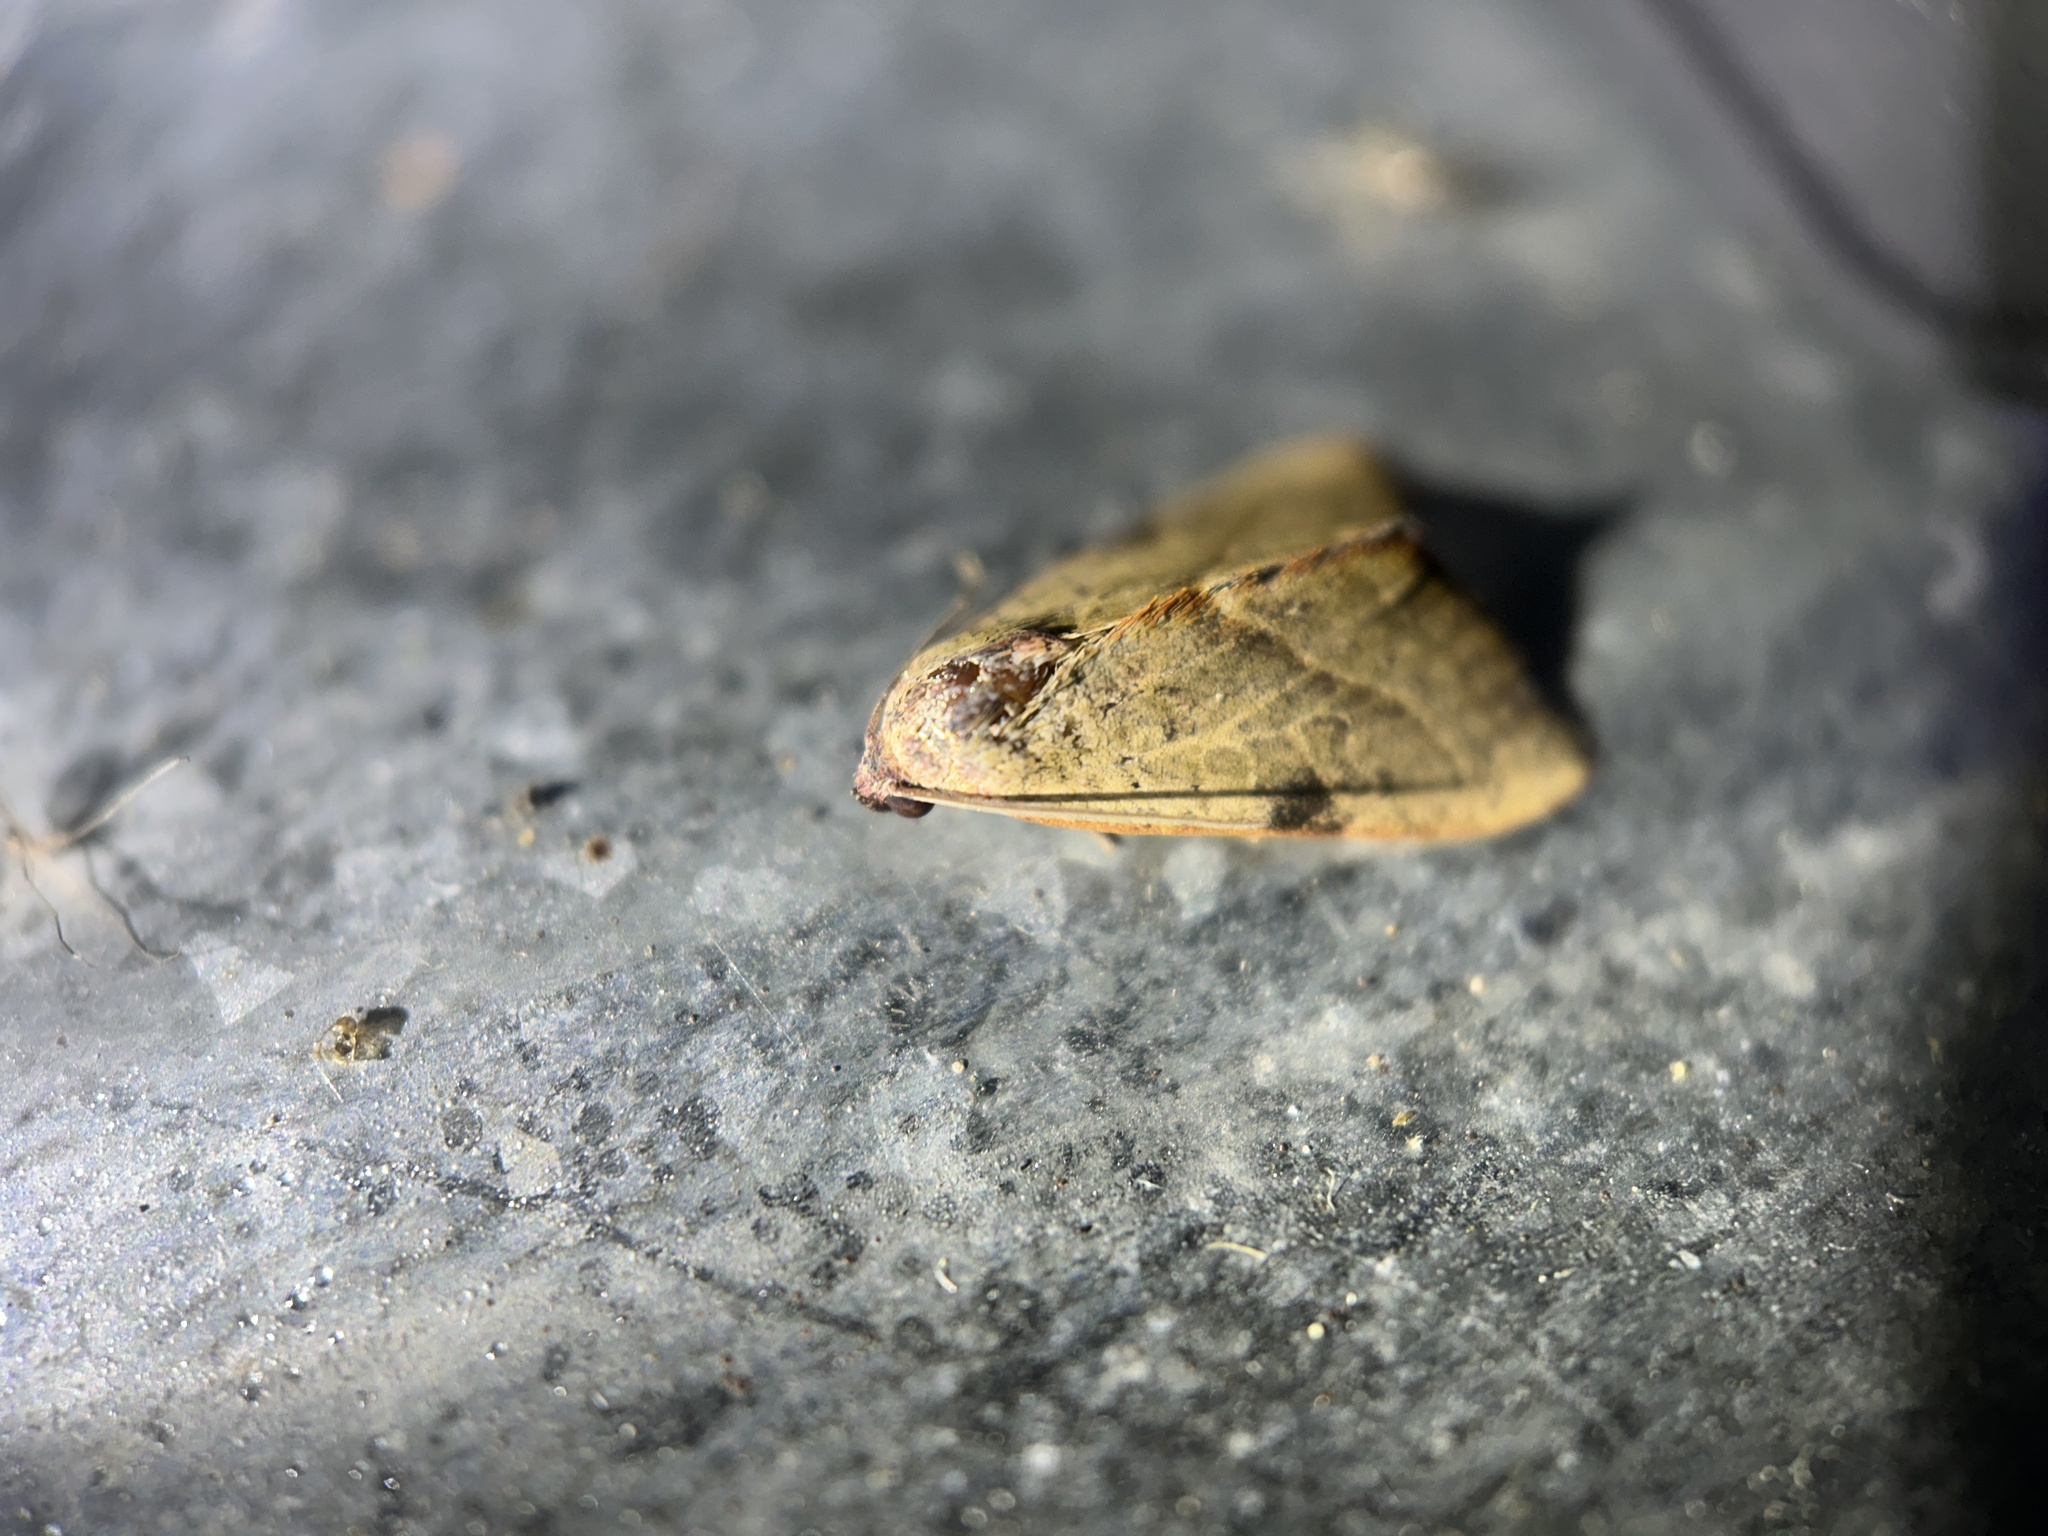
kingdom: Animalia
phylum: Arthropoda
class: Insecta
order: Lepidoptera
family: Noctuidae
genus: Galgula
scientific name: Galgula partita
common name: Wedgeling
